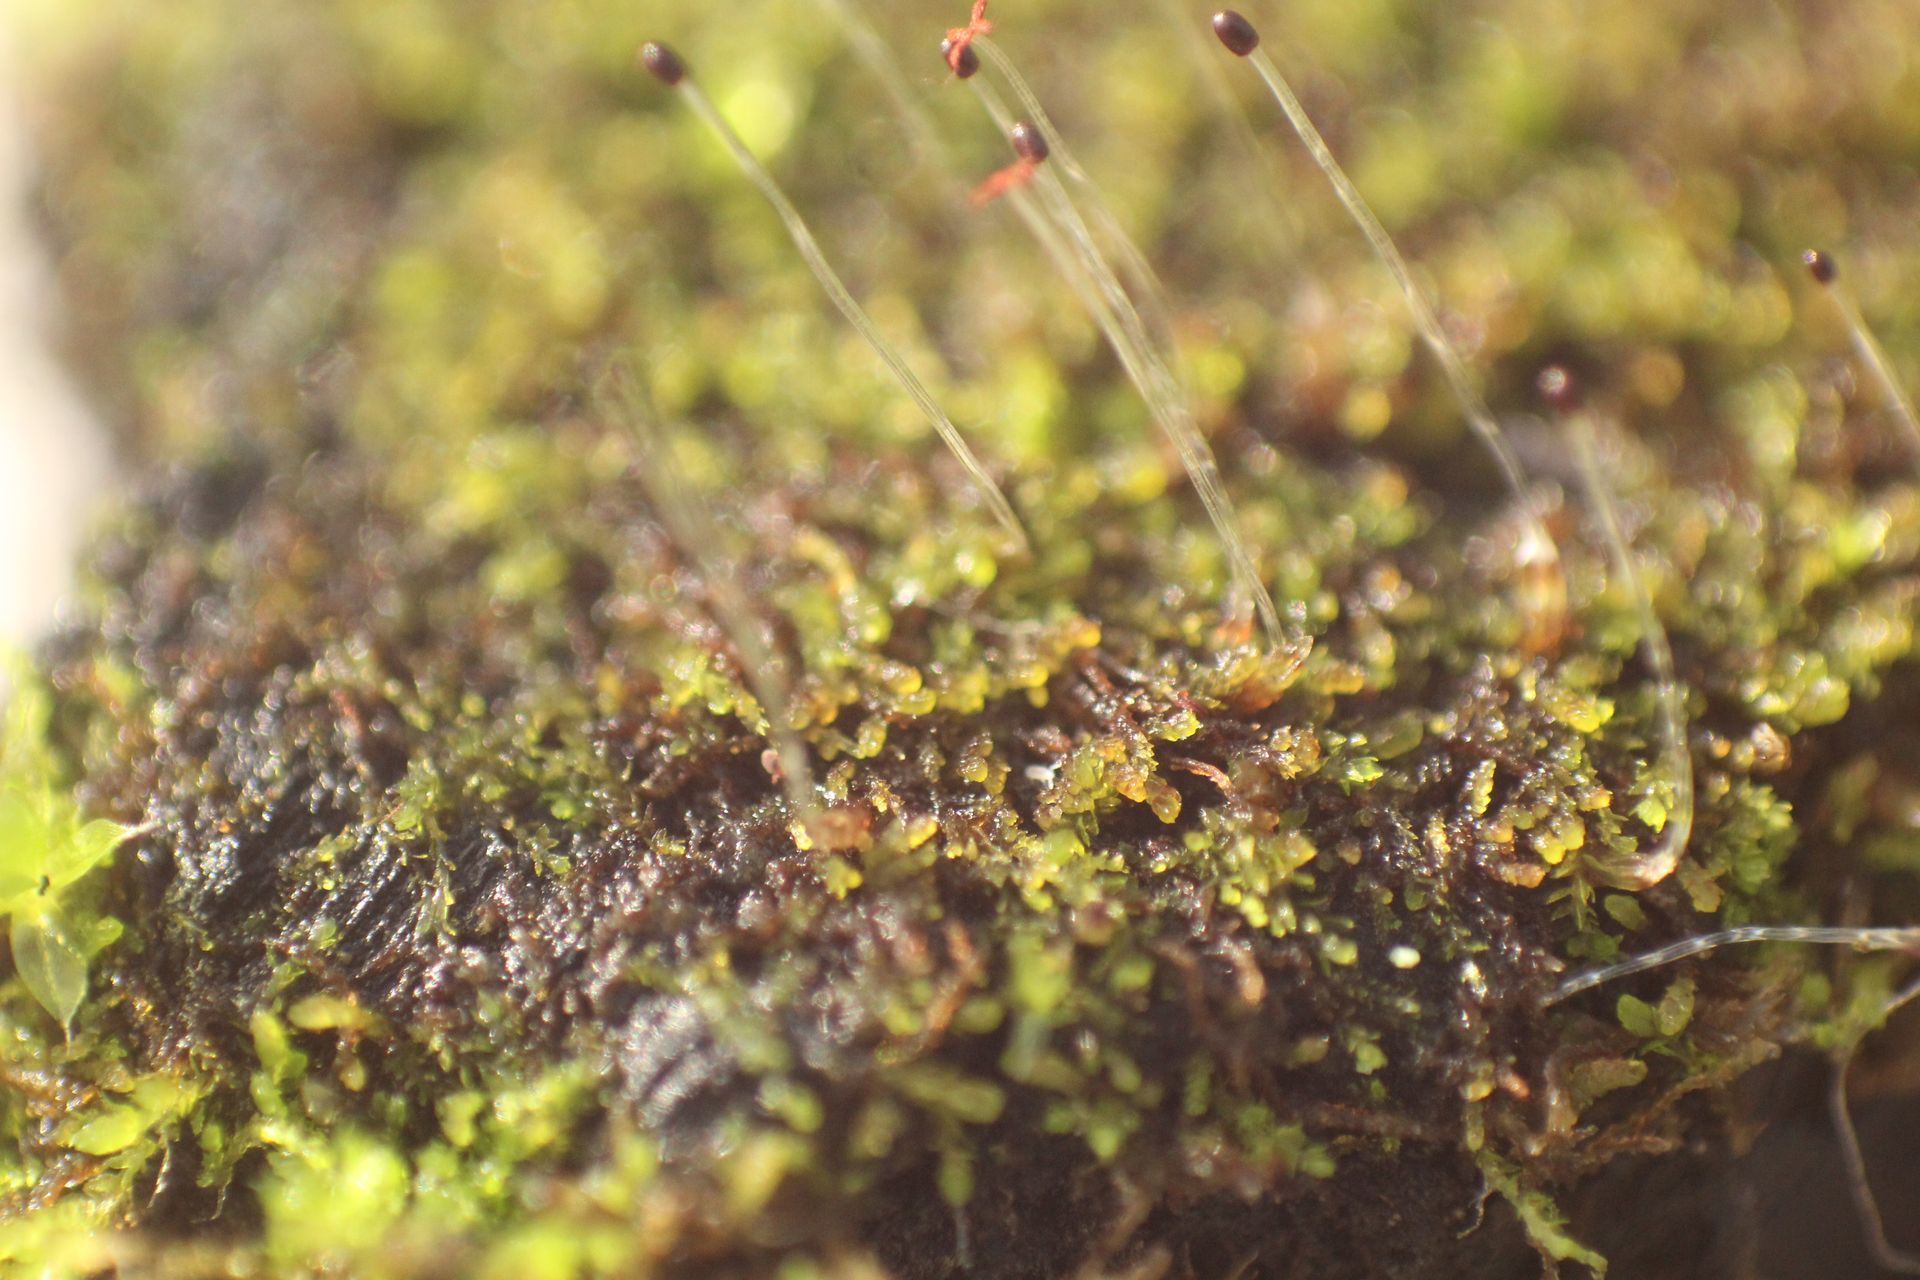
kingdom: Plantae
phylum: Marchantiophyta
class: Jungermanniopsida
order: Jungermanniales
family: Cephaloziellaceae
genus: Cephaloziella
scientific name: Cephaloziella exiliflora
